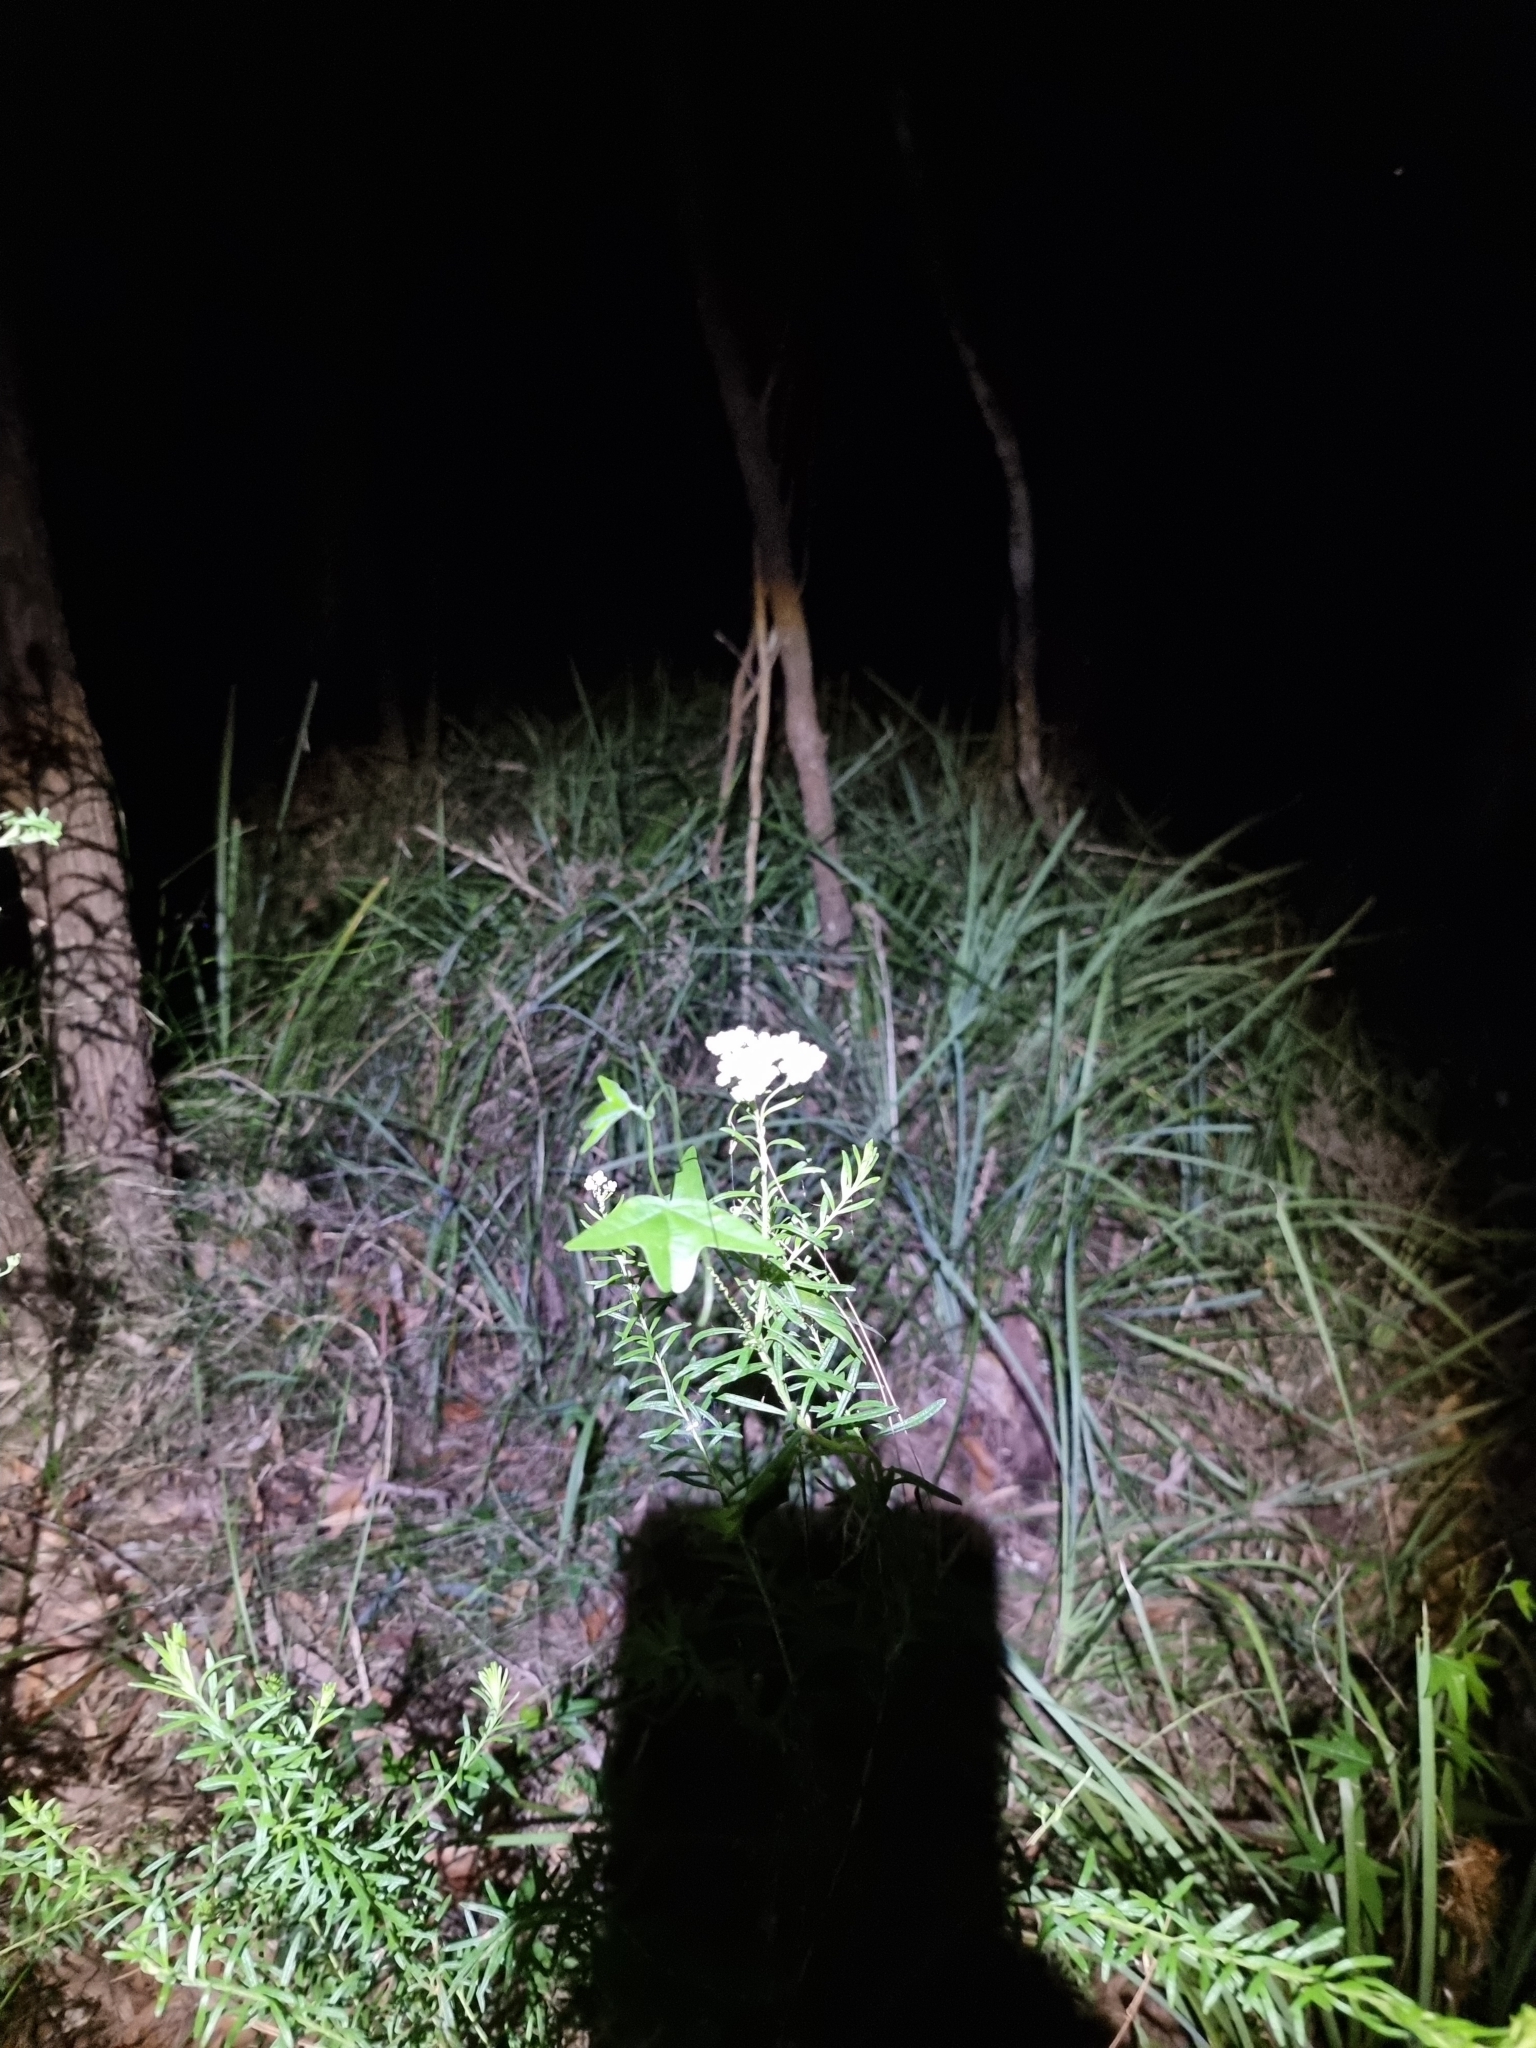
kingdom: Plantae
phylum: Tracheophyta
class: Magnoliopsida
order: Asterales
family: Asteraceae
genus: Ozothamnus
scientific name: Ozothamnus diosmifolius
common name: White-dogwood
